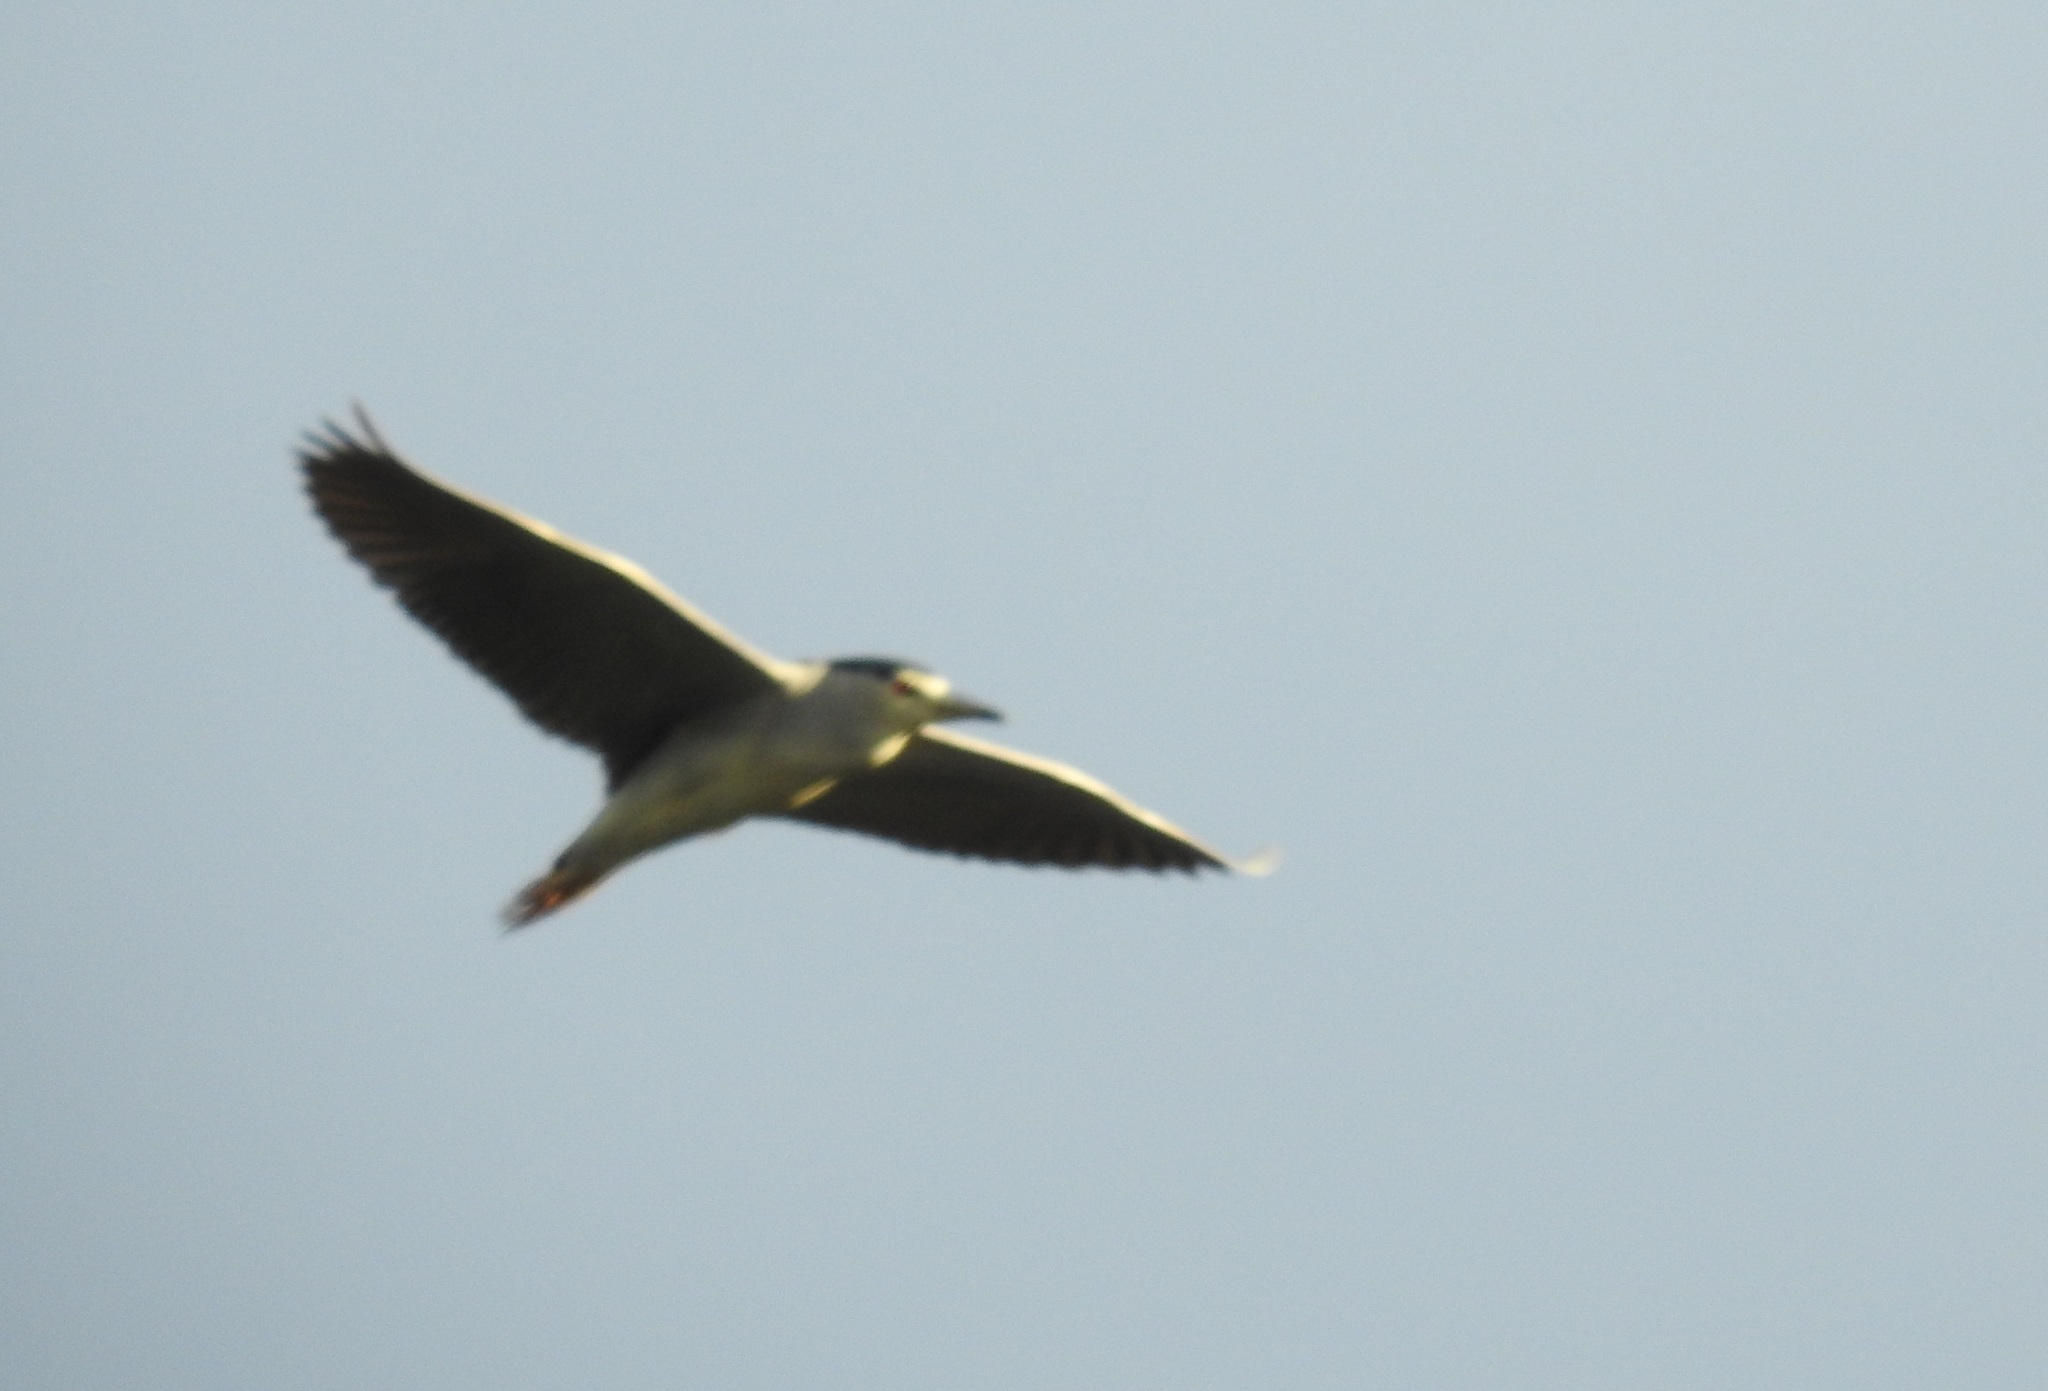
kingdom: Animalia
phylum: Chordata
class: Aves
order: Pelecaniformes
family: Ardeidae
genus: Nycticorax
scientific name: Nycticorax nycticorax
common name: Black-crowned night heron
